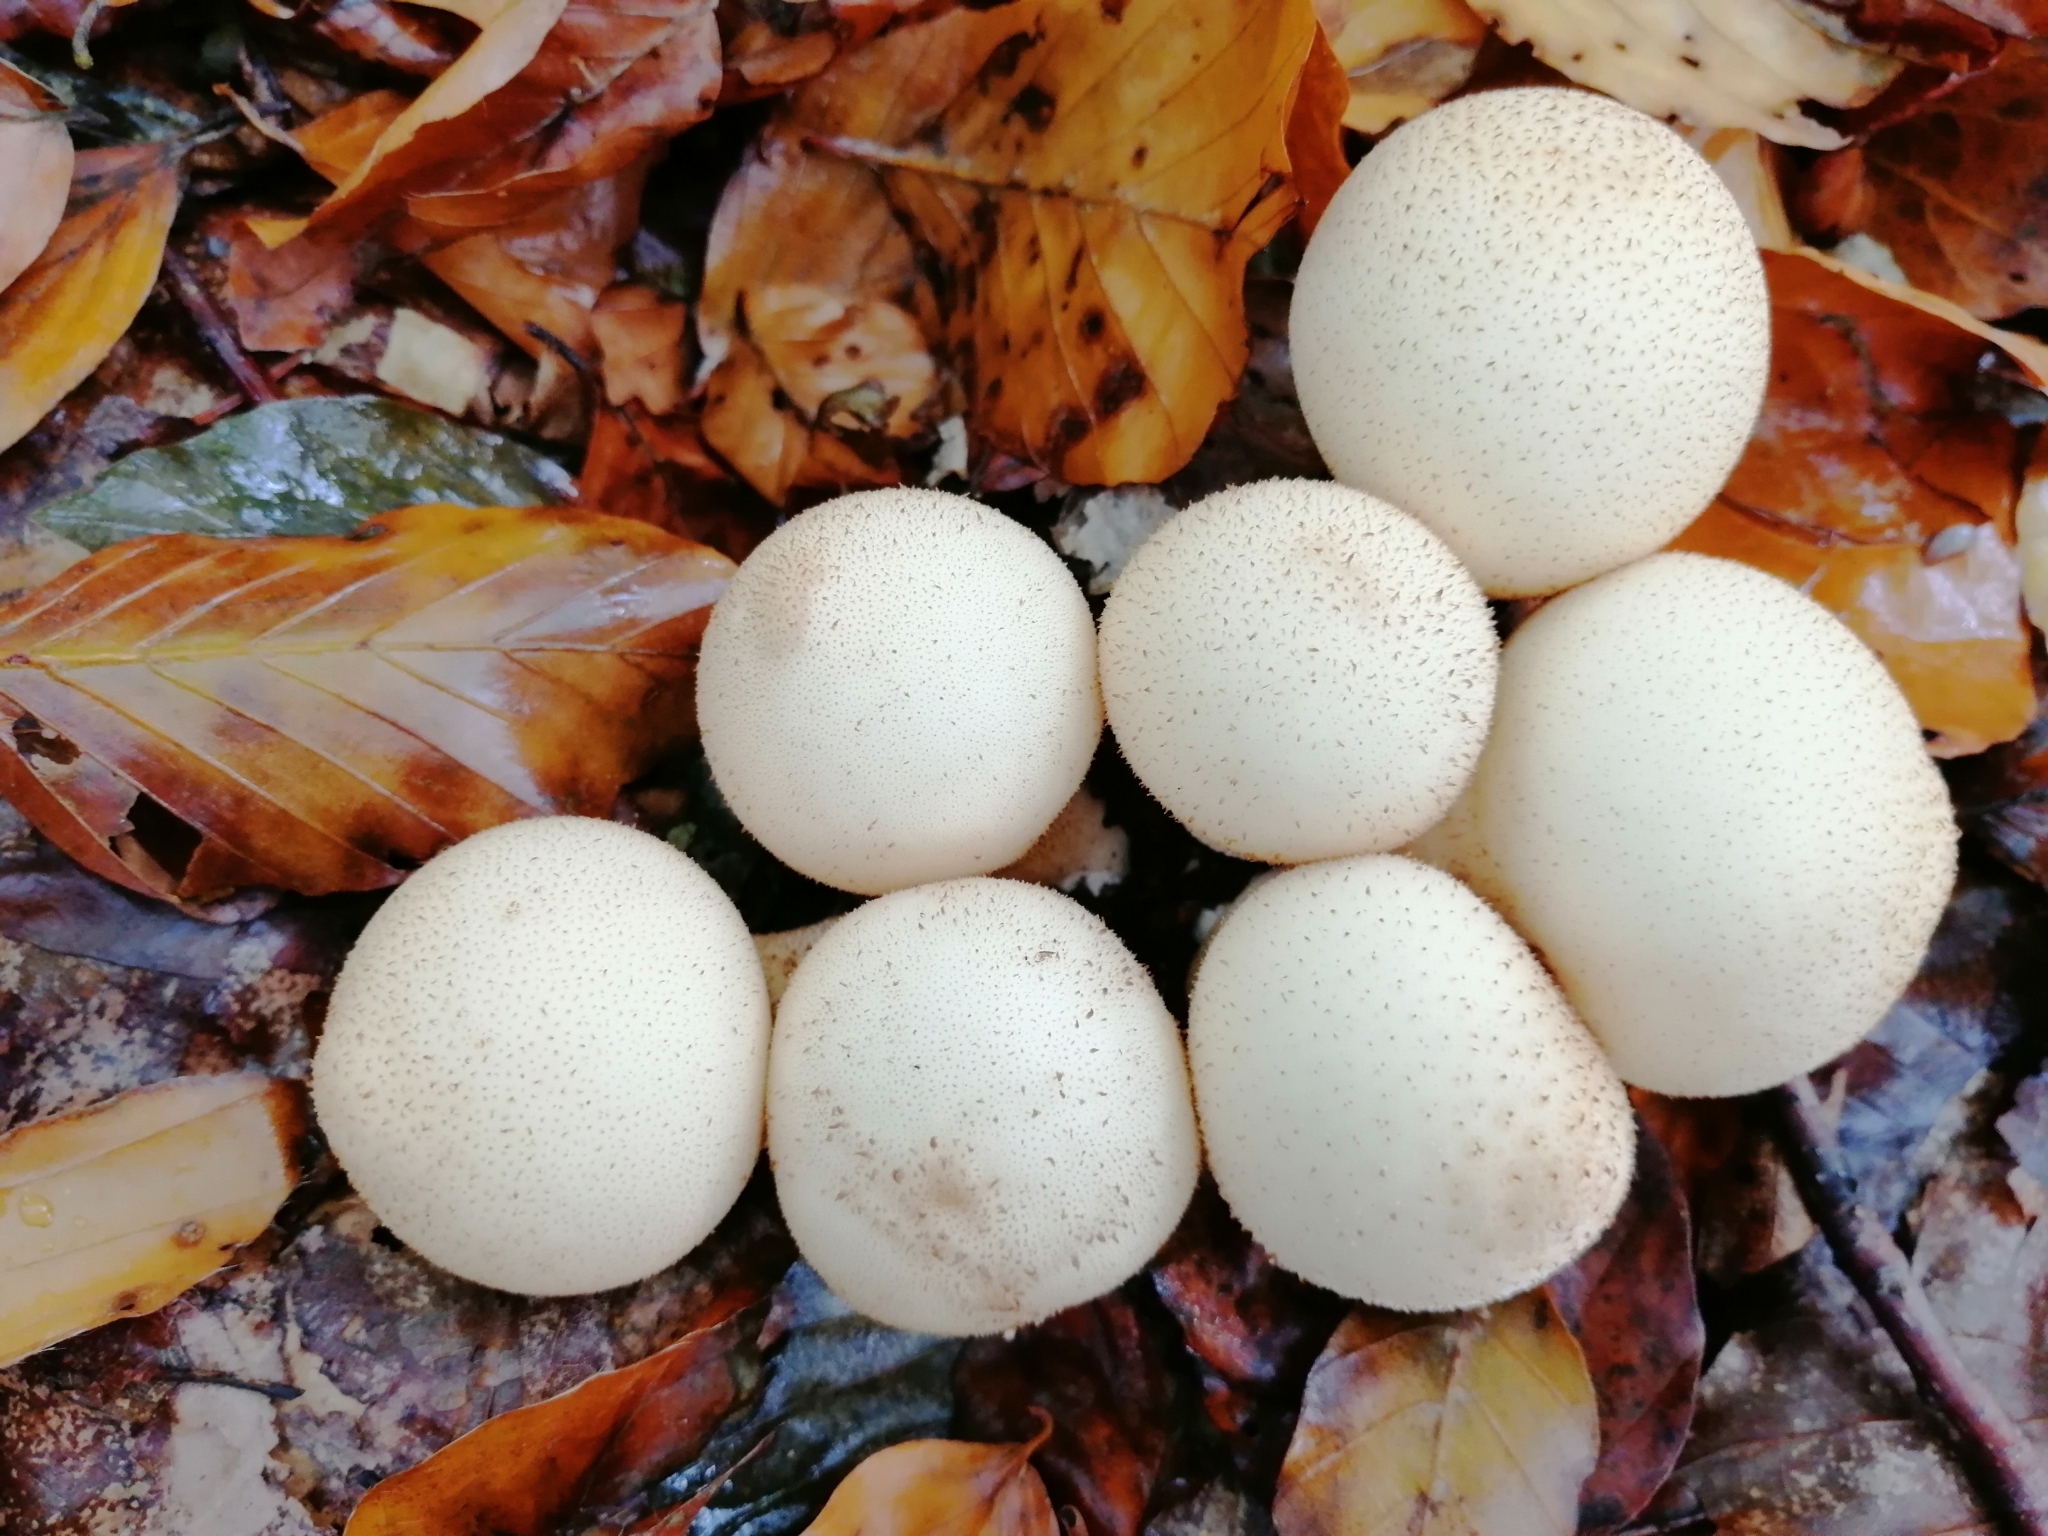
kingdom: Fungi
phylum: Basidiomycota
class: Agaricomycetes
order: Agaricales
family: Lycoperdaceae
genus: Apioperdon
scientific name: Apioperdon pyriforme
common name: Pear-shaped puffball
